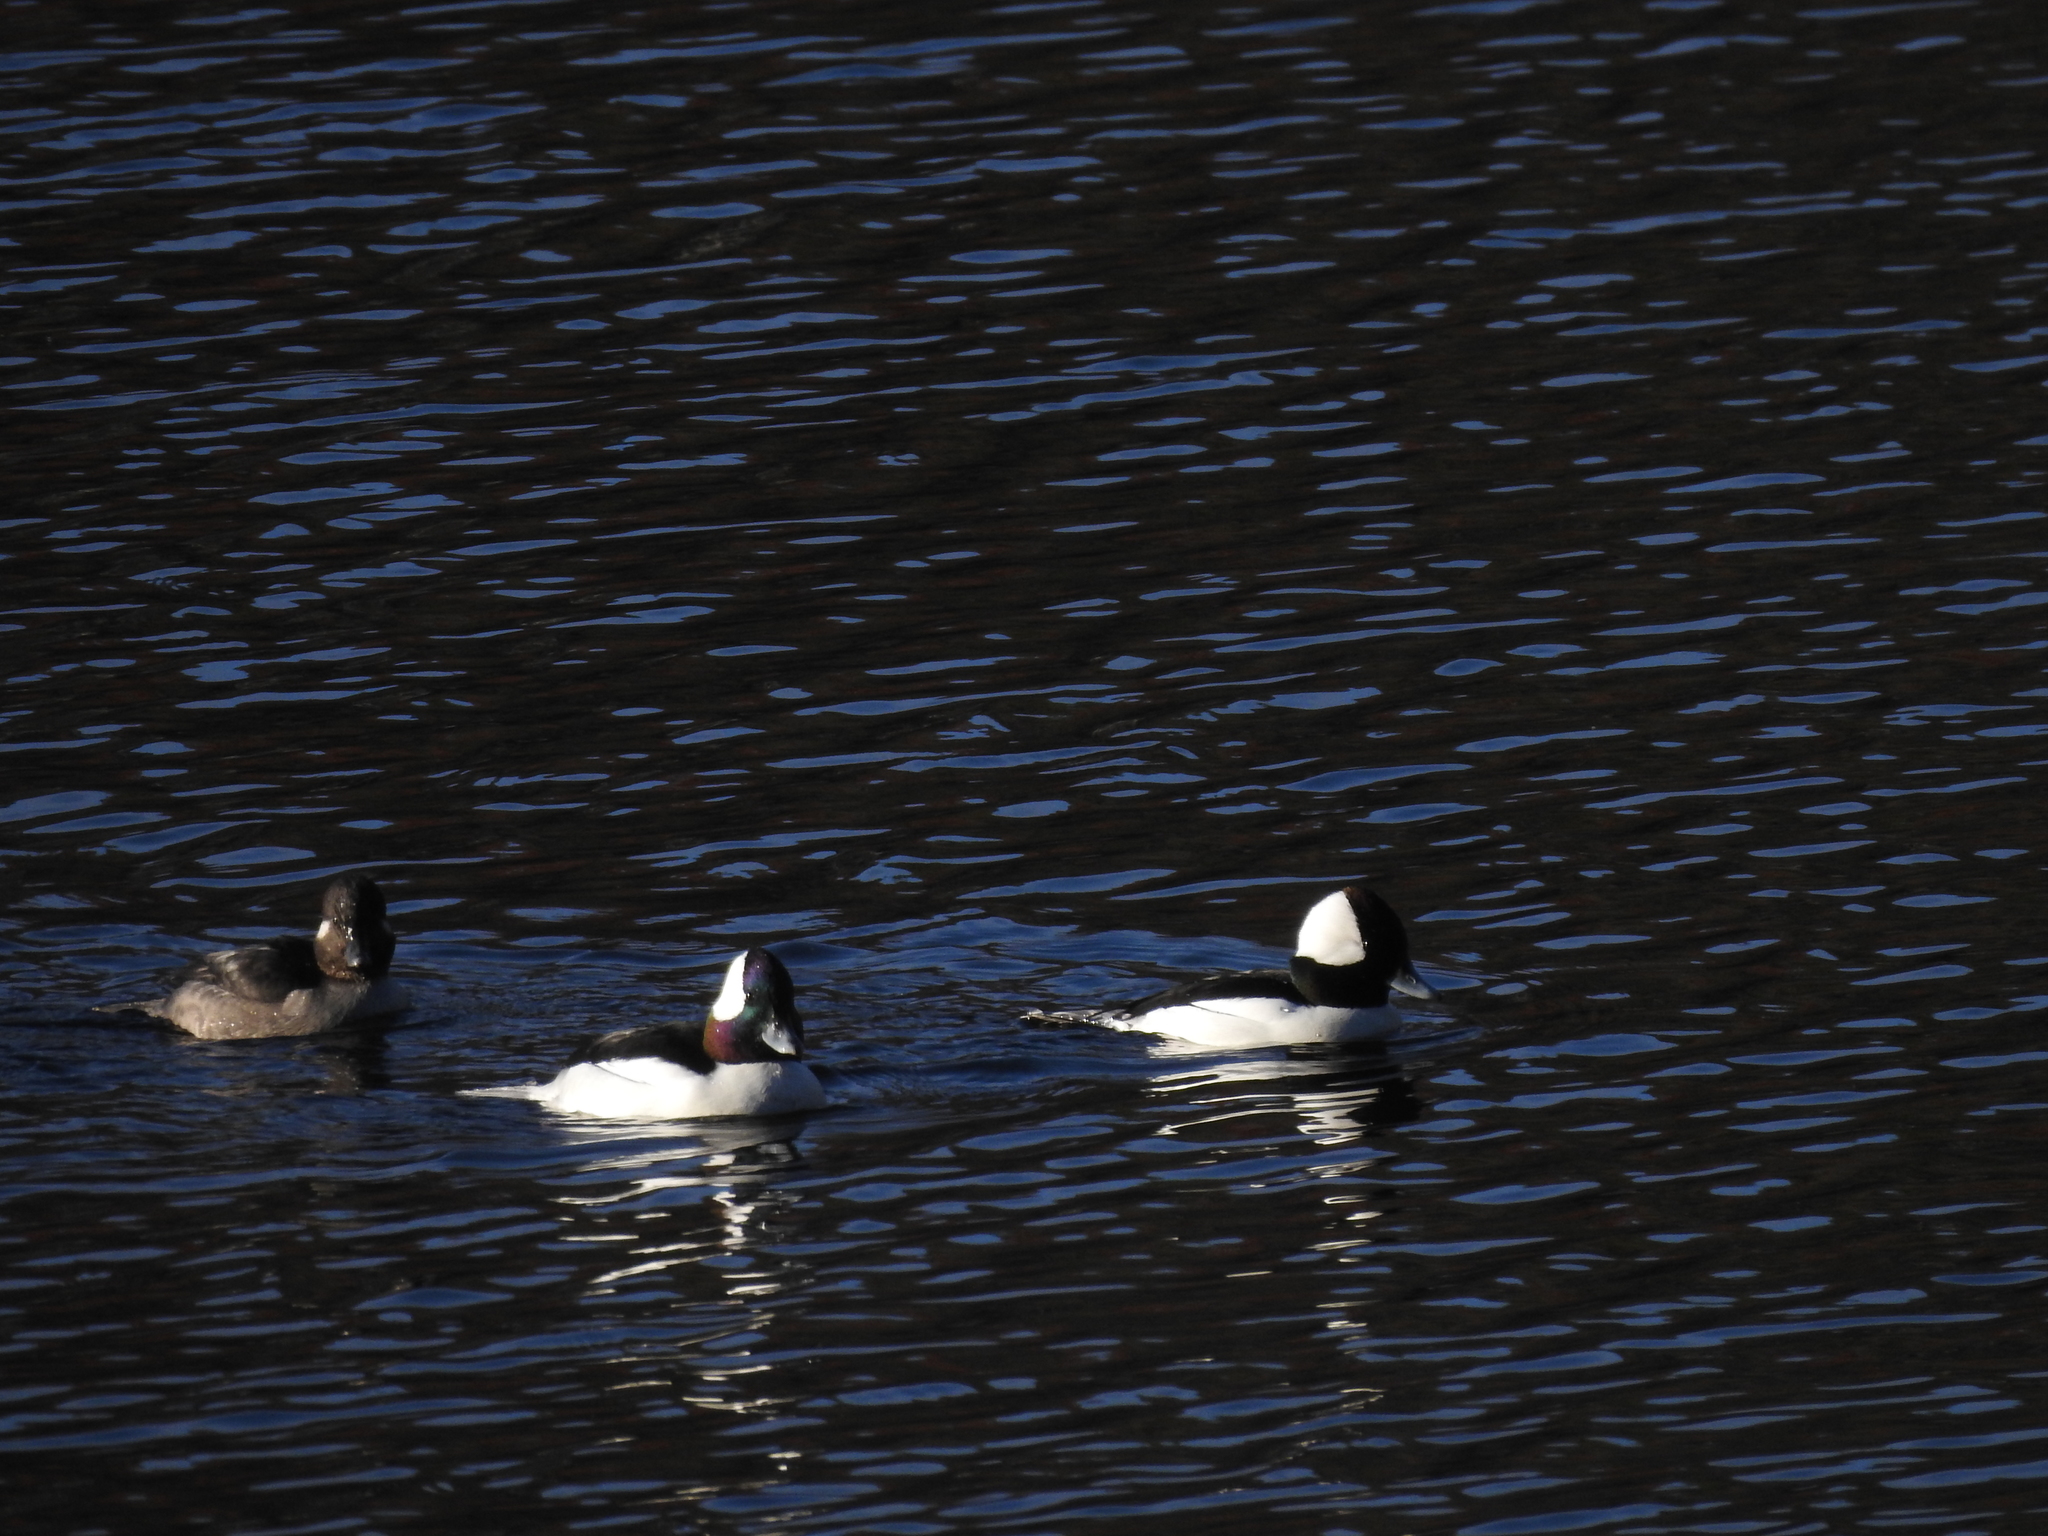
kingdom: Animalia
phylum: Chordata
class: Aves
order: Anseriformes
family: Anatidae
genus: Bucephala
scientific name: Bucephala albeola
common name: Bufflehead
